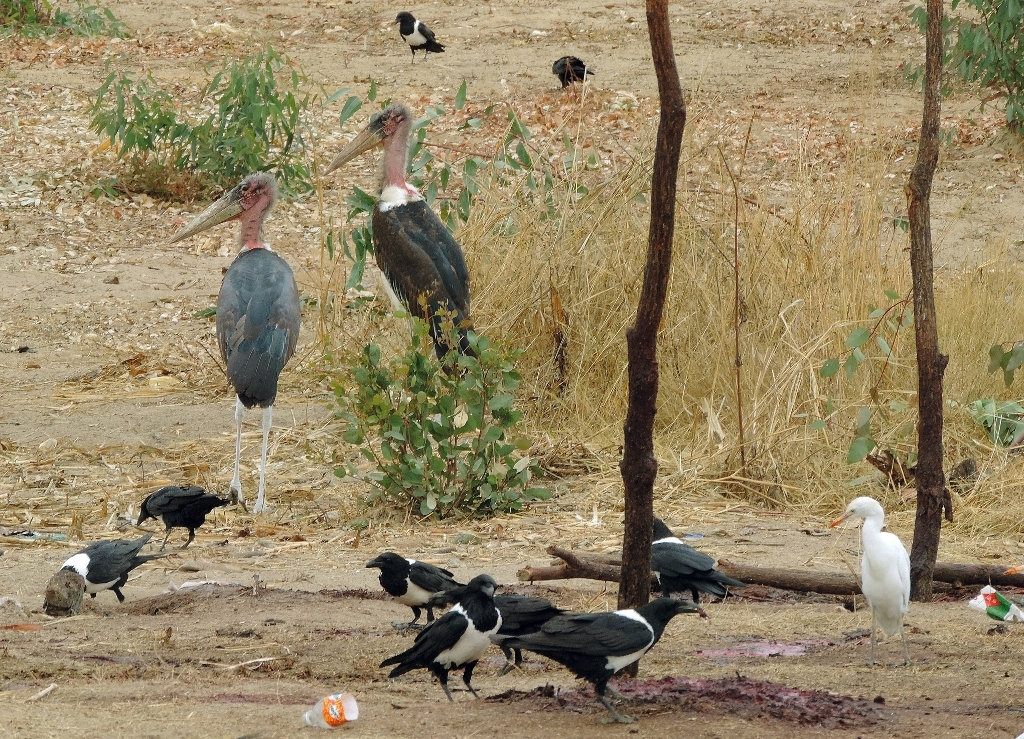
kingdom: Animalia
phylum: Chordata
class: Aves
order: Passeriformes
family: Corvidae
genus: Corvus
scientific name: Corvus albus
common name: Pied crow
